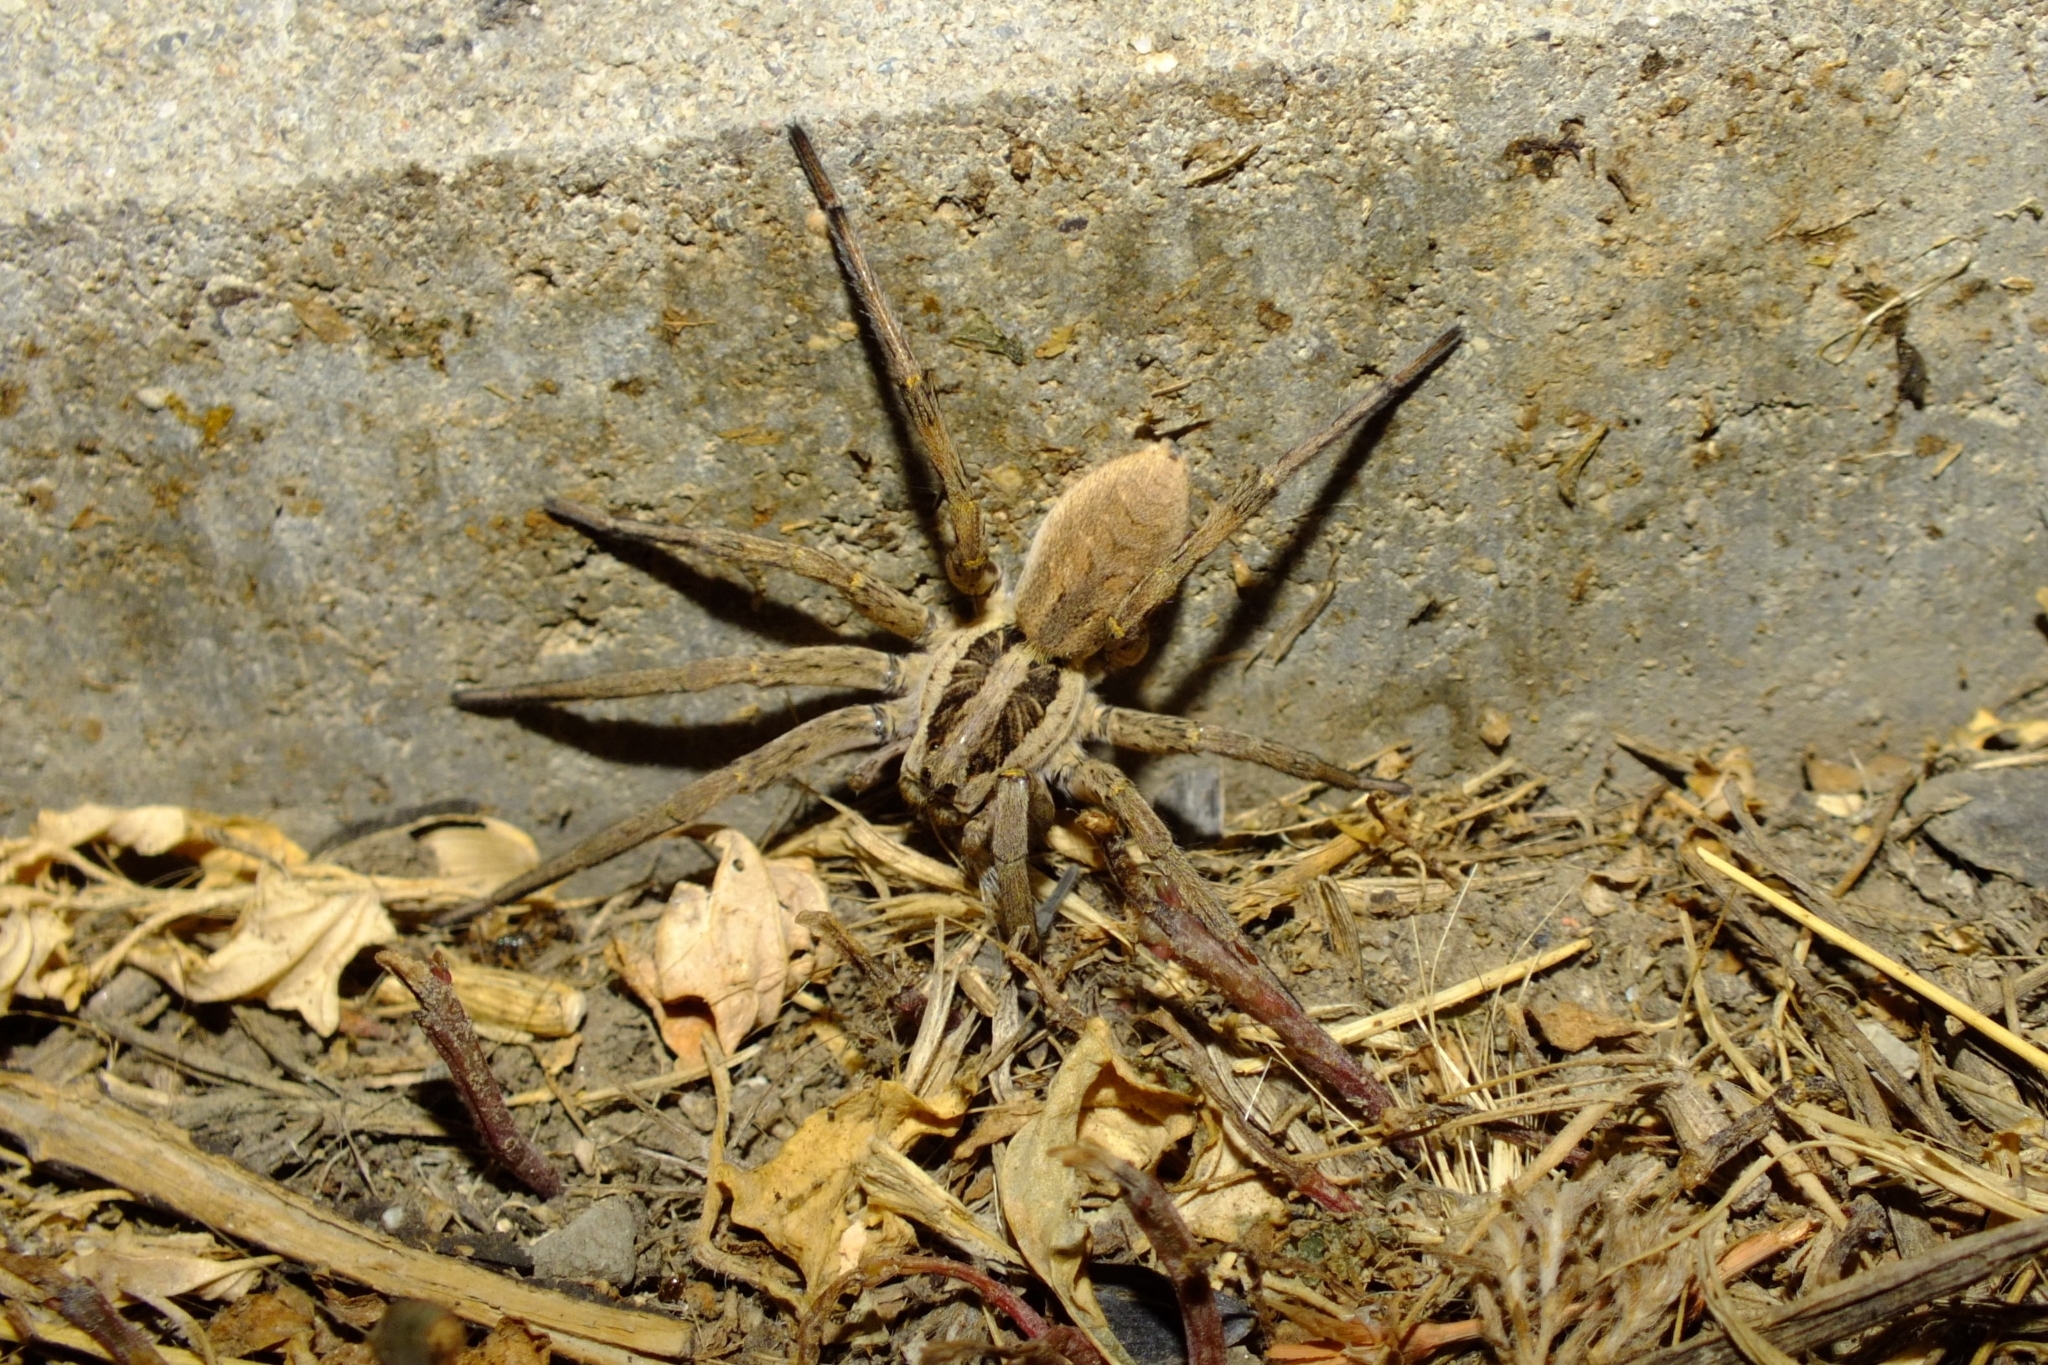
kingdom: Animalia
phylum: Arthropoda
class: Arachnida
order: Araneae
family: Lycosidae
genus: Hogna
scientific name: Hogna radiata
